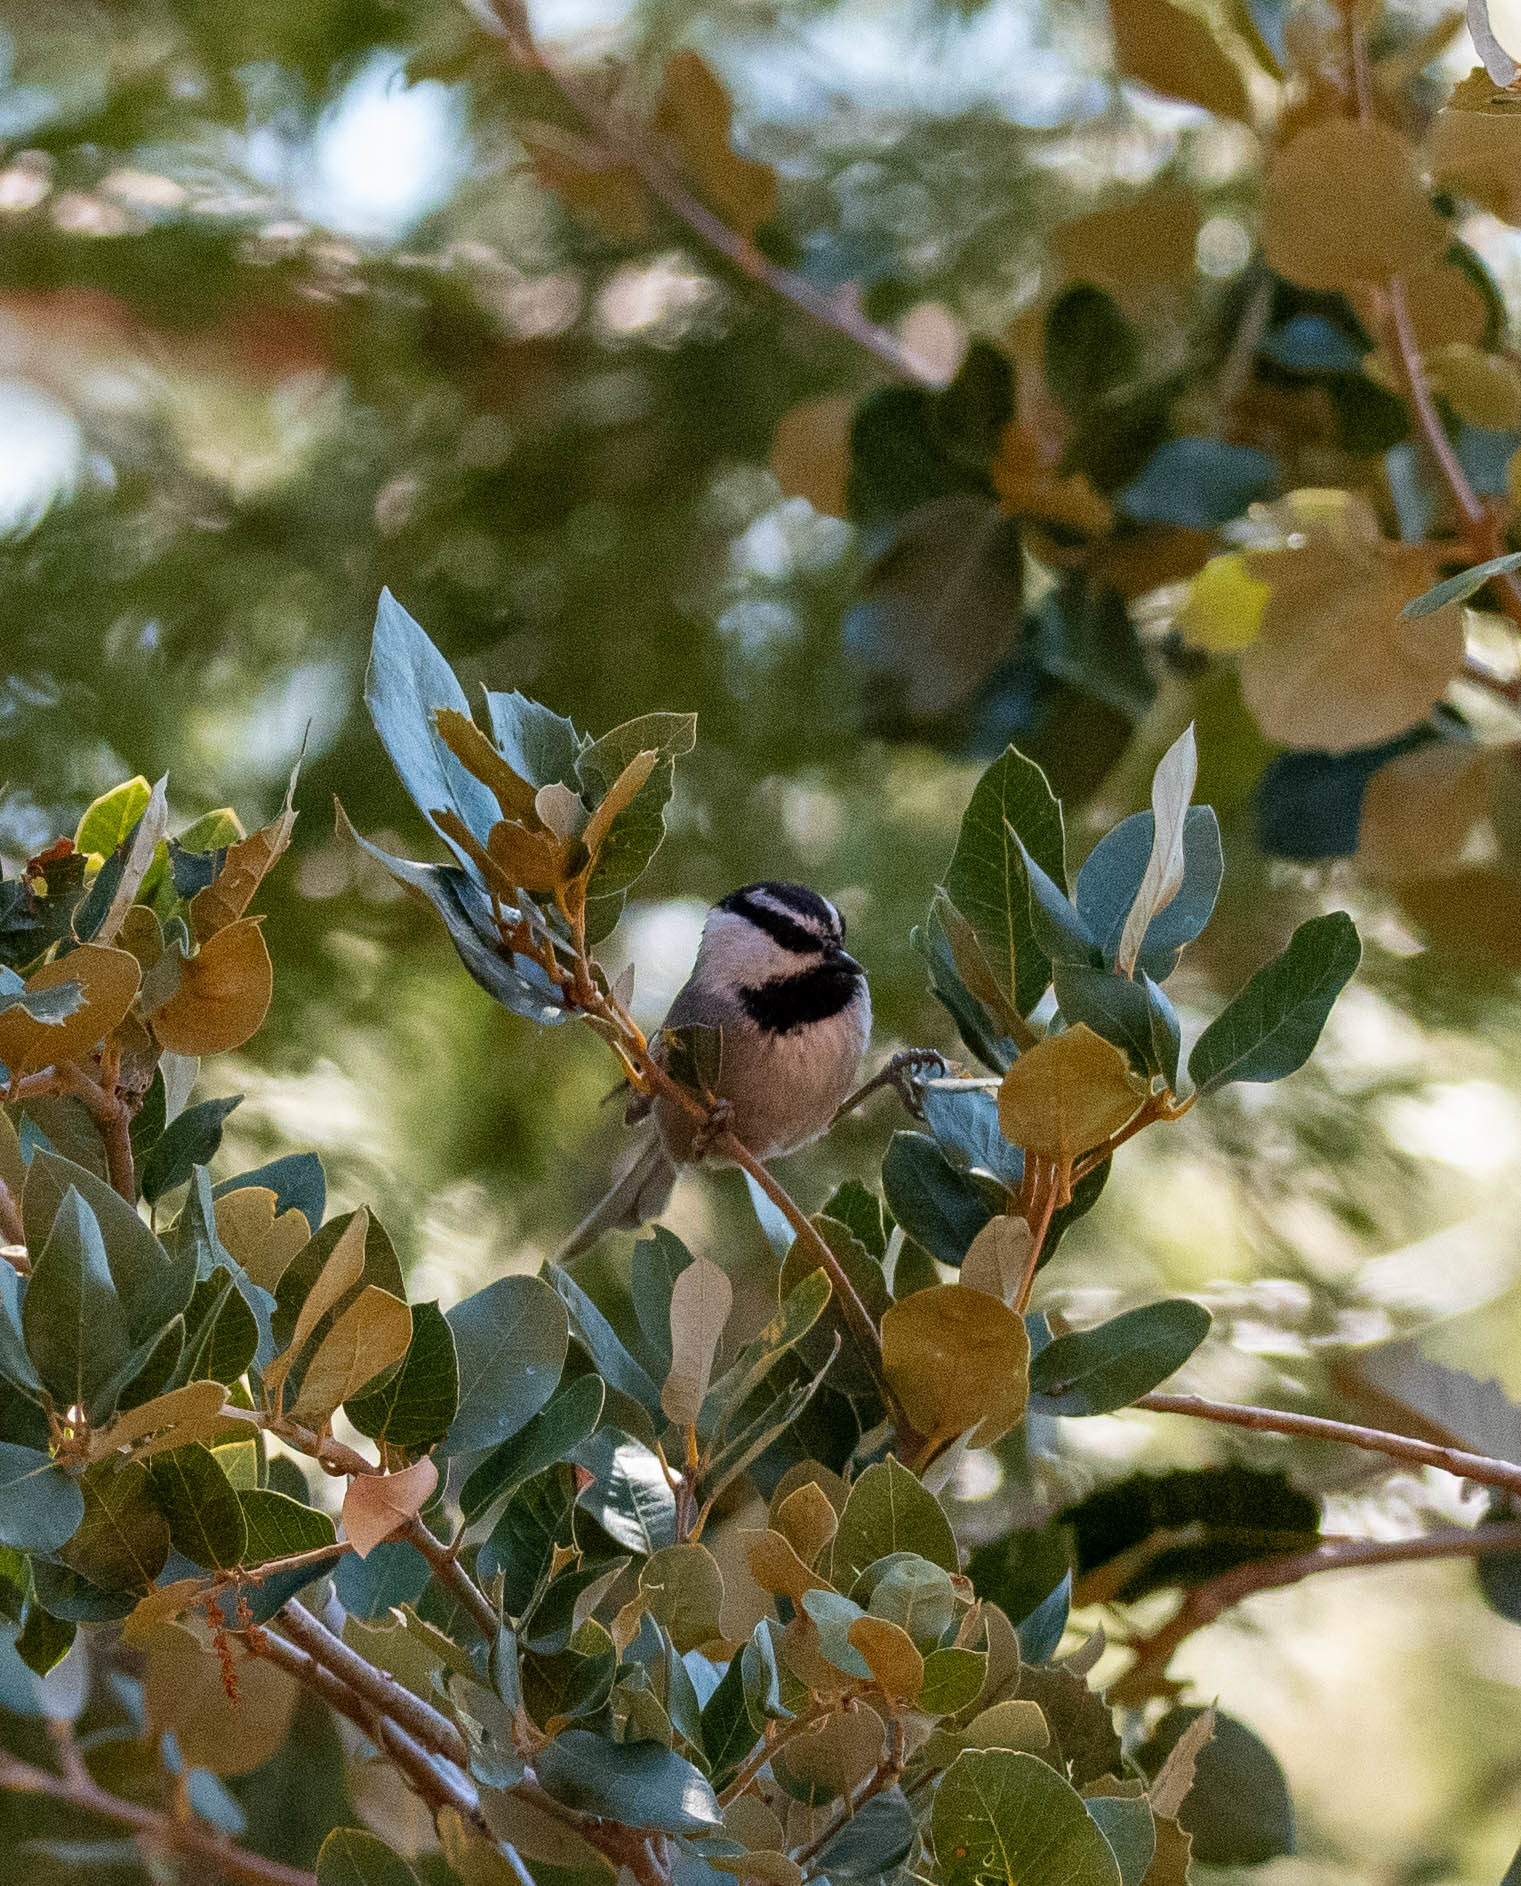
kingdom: Animalia
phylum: Chordata
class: Aves
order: Passeriformes
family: Paridae
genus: Poecile
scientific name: Poecile gambeli
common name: Mountain chickadee
